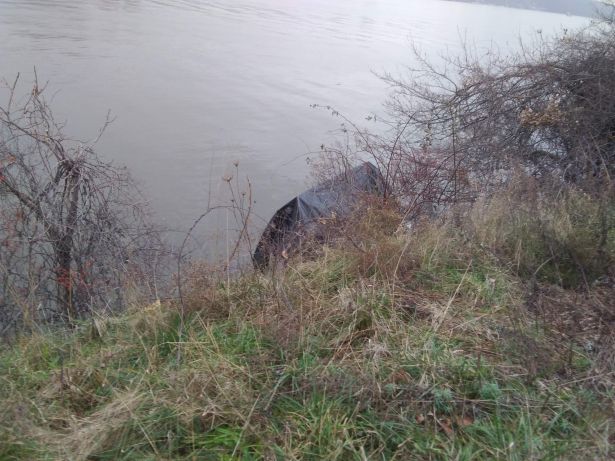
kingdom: Plantae
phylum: Tracheophyta
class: Magnoliopsida
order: Celastrales
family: Celastraceae
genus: Celastrus
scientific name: Celastrus orbiculatus
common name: Oriental bittersweet
